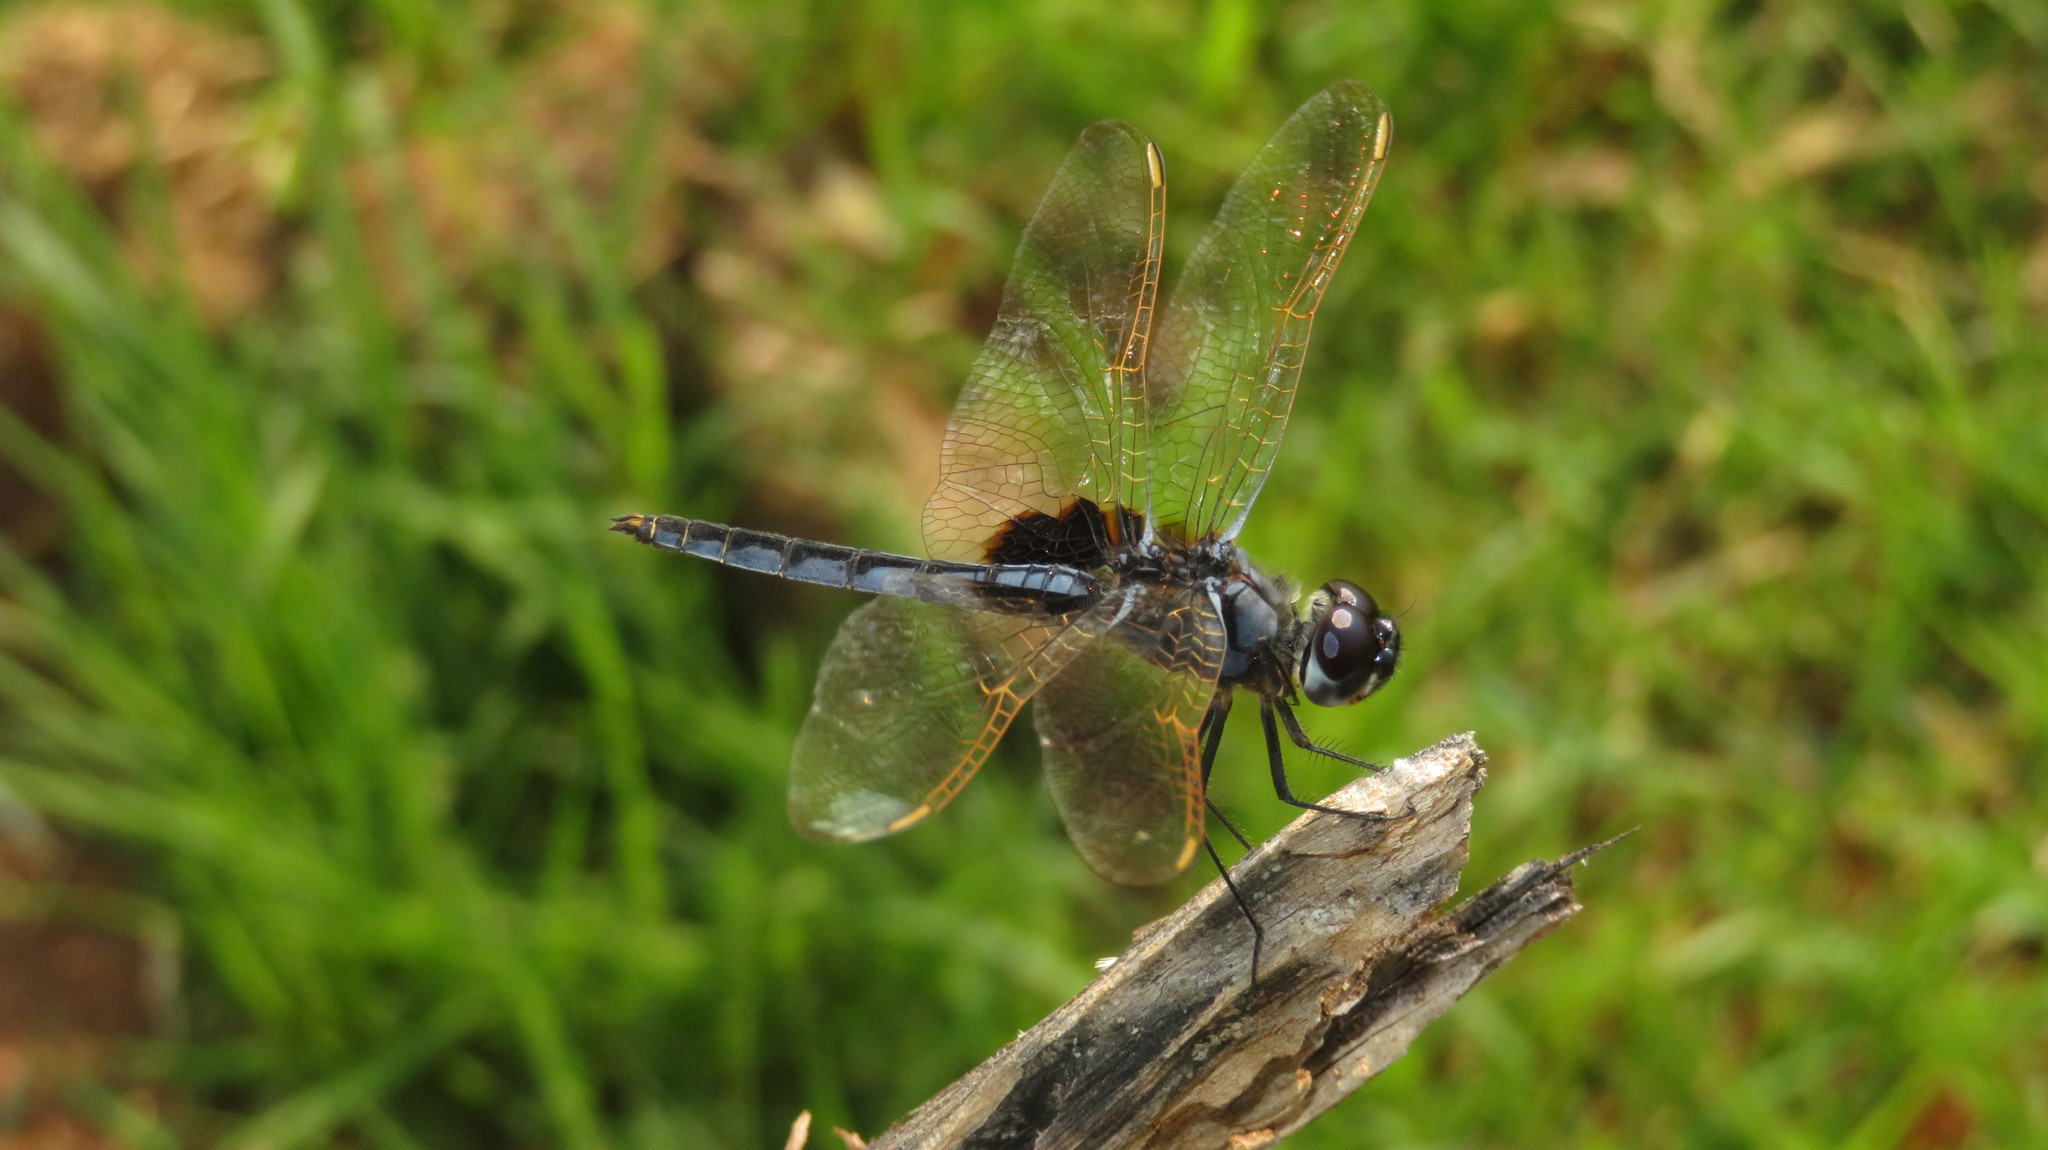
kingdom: Animalia
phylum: Arthropoda
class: Insecta
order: Odonata
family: Libellulidae
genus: Urothemis
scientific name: Urothemis edwardsii
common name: Blue basker
